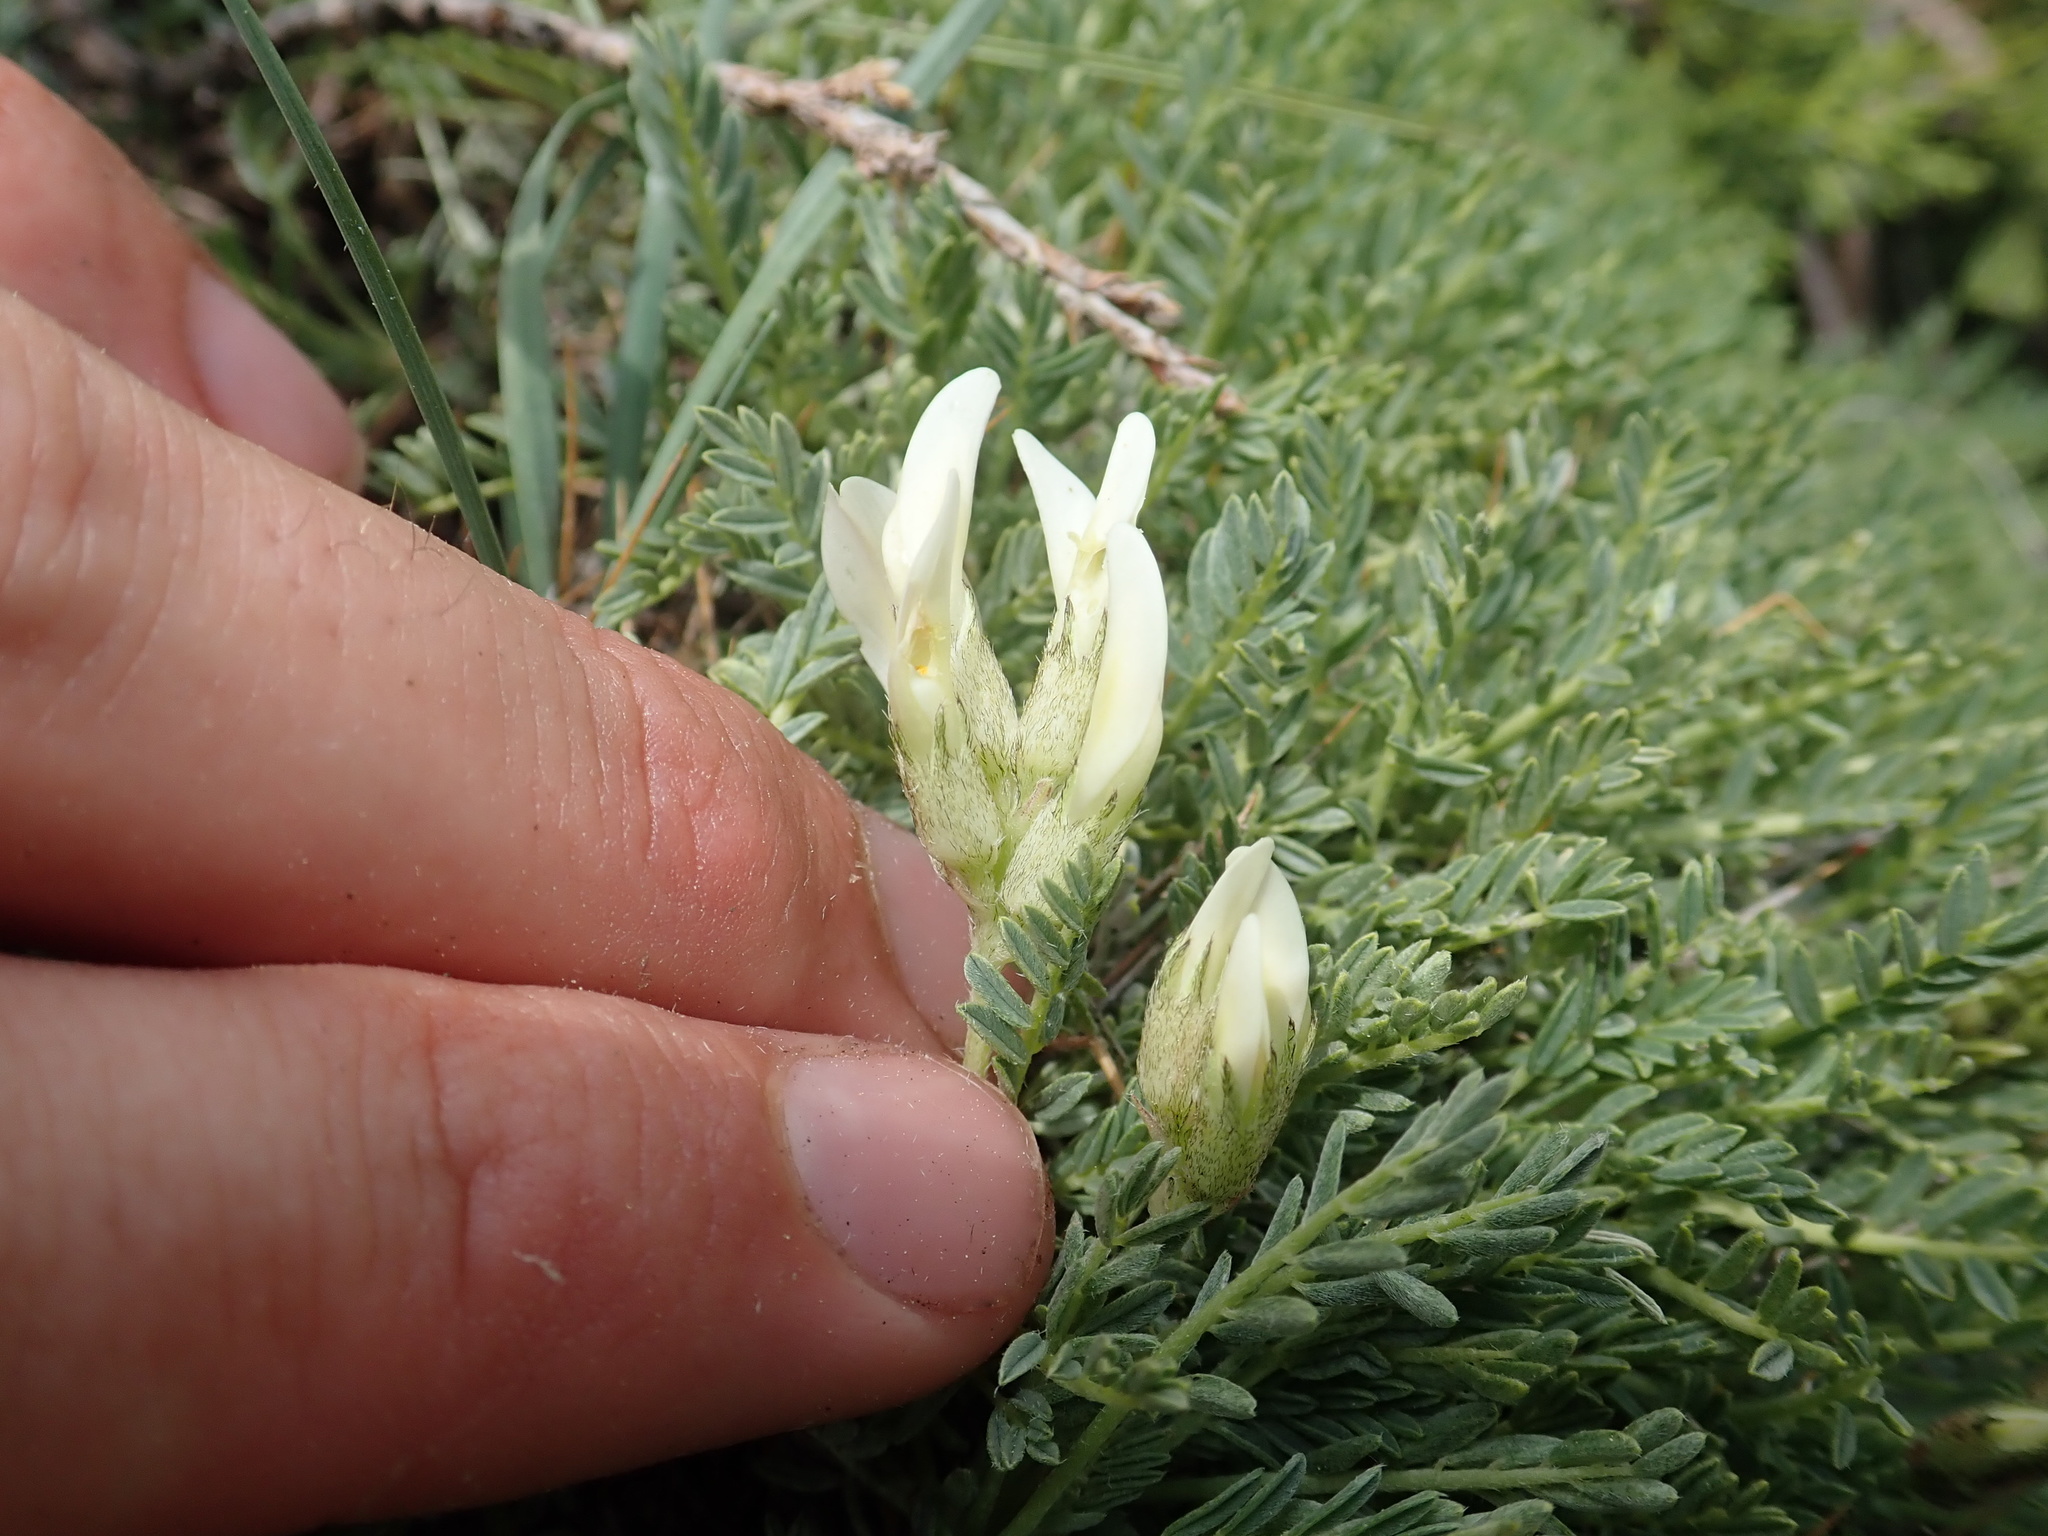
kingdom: Plantae
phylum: Tracheophyta
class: Magnoliopsida
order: Fabales
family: Fabaceae
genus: Astragalus
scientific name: Astragalus angustifolius
